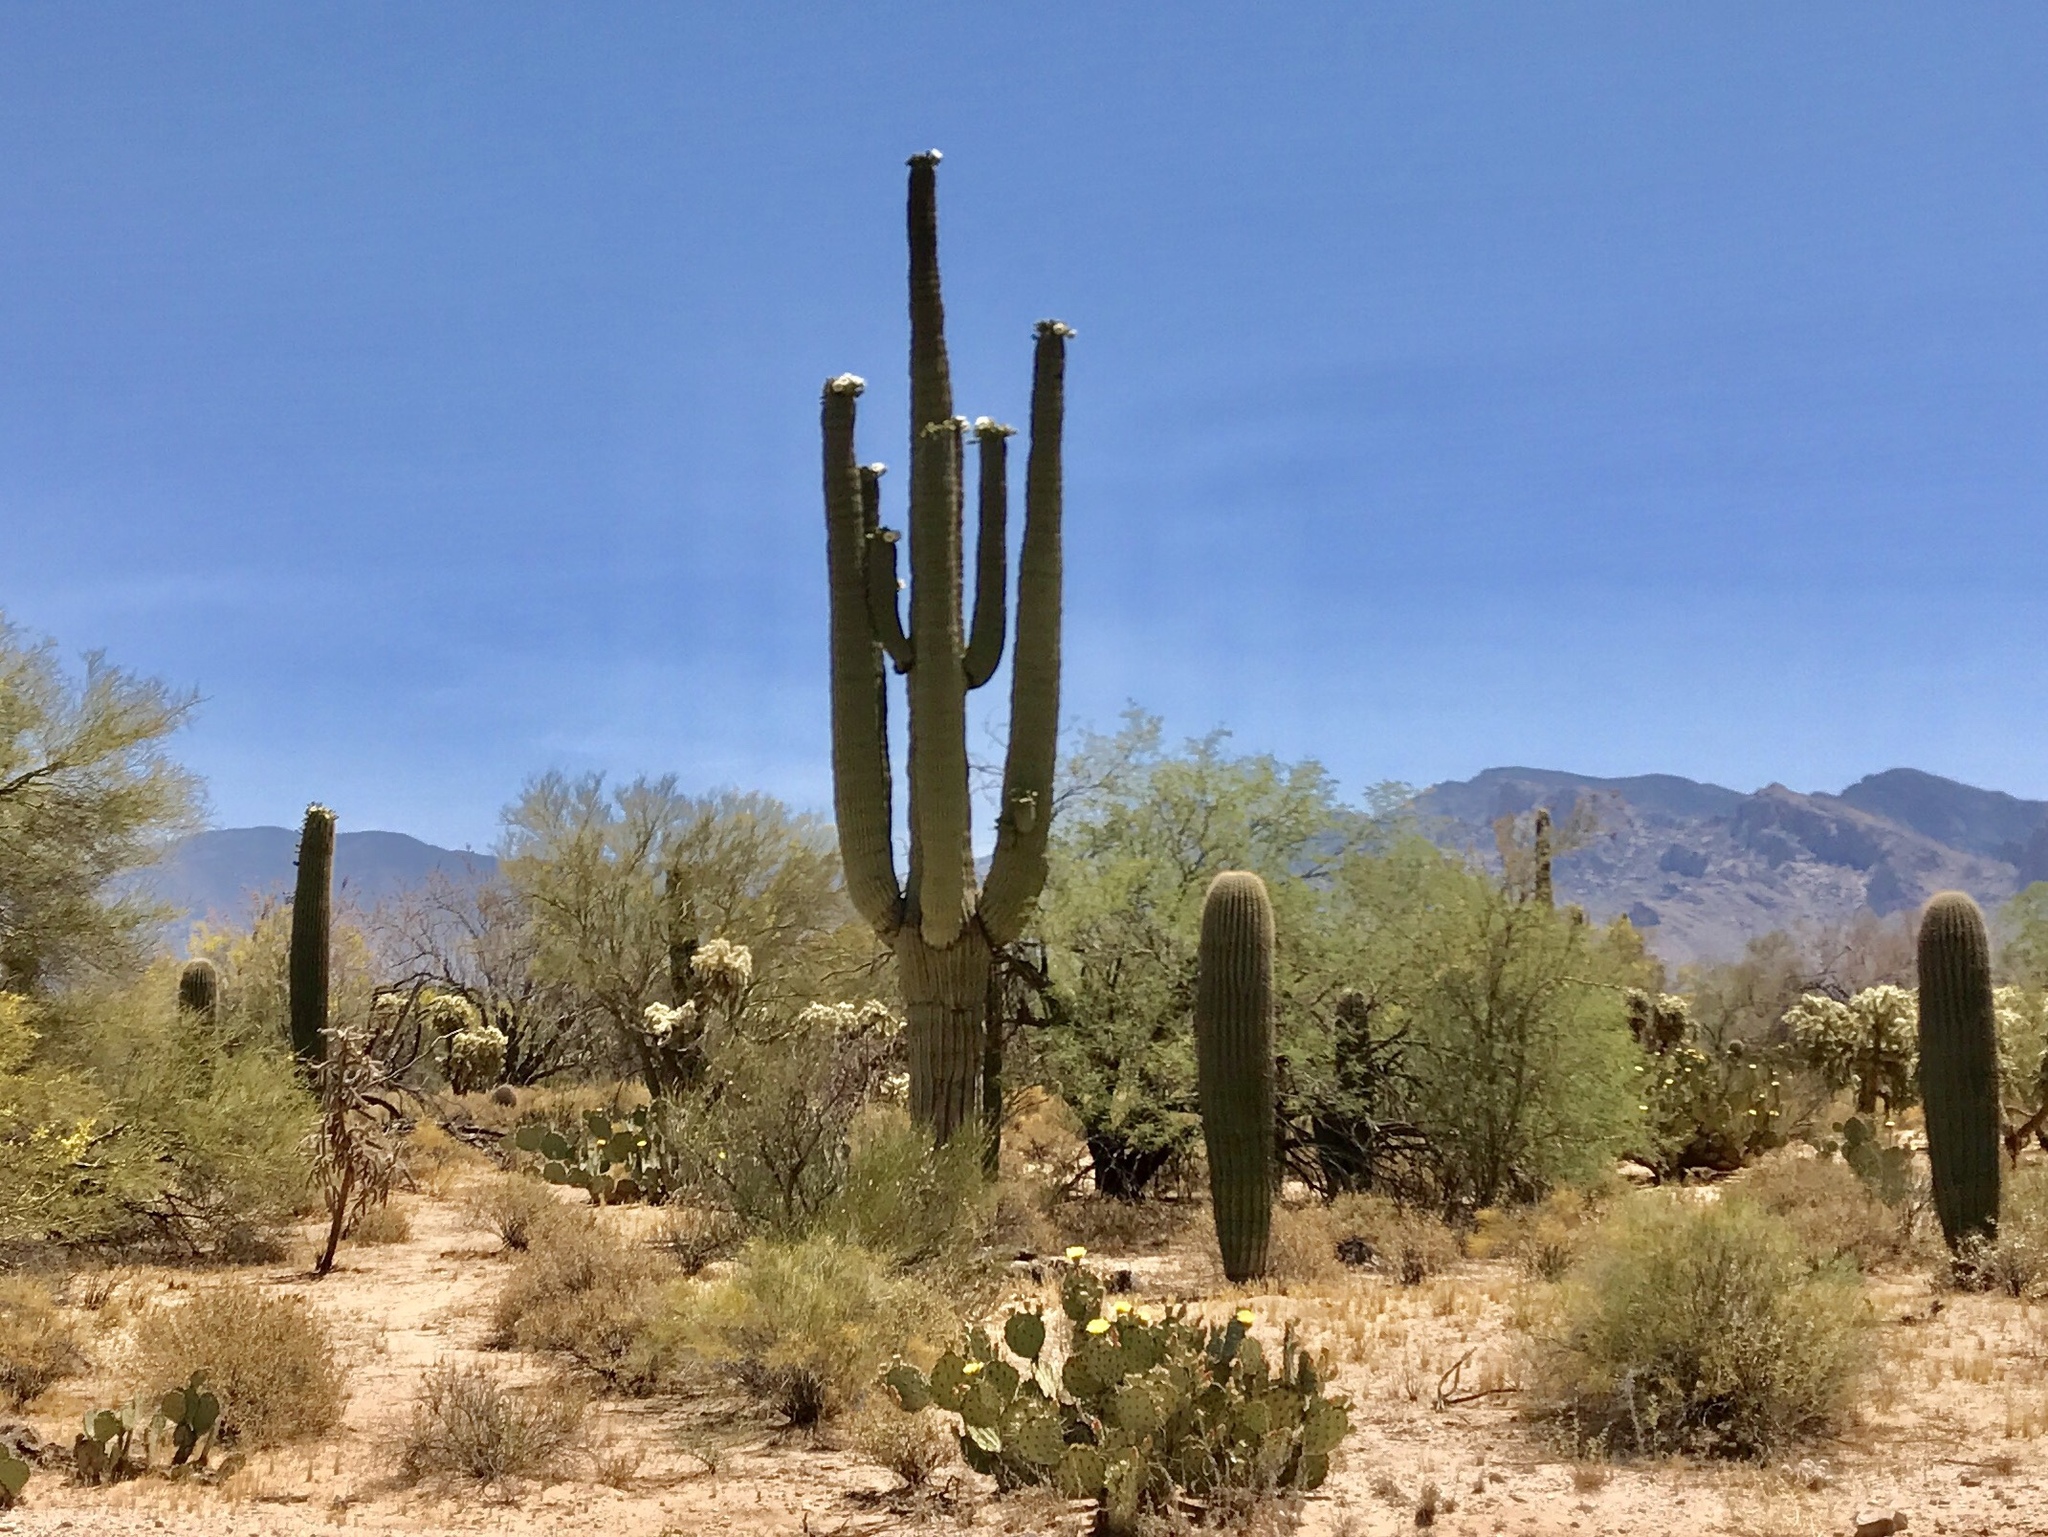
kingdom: Plantae
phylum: Tracheophyta
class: Magnoliopsida
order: Caryophyllales
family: Cactaceae
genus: Carnegiea
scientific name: Carnegiea gigantea
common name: Saguaro
